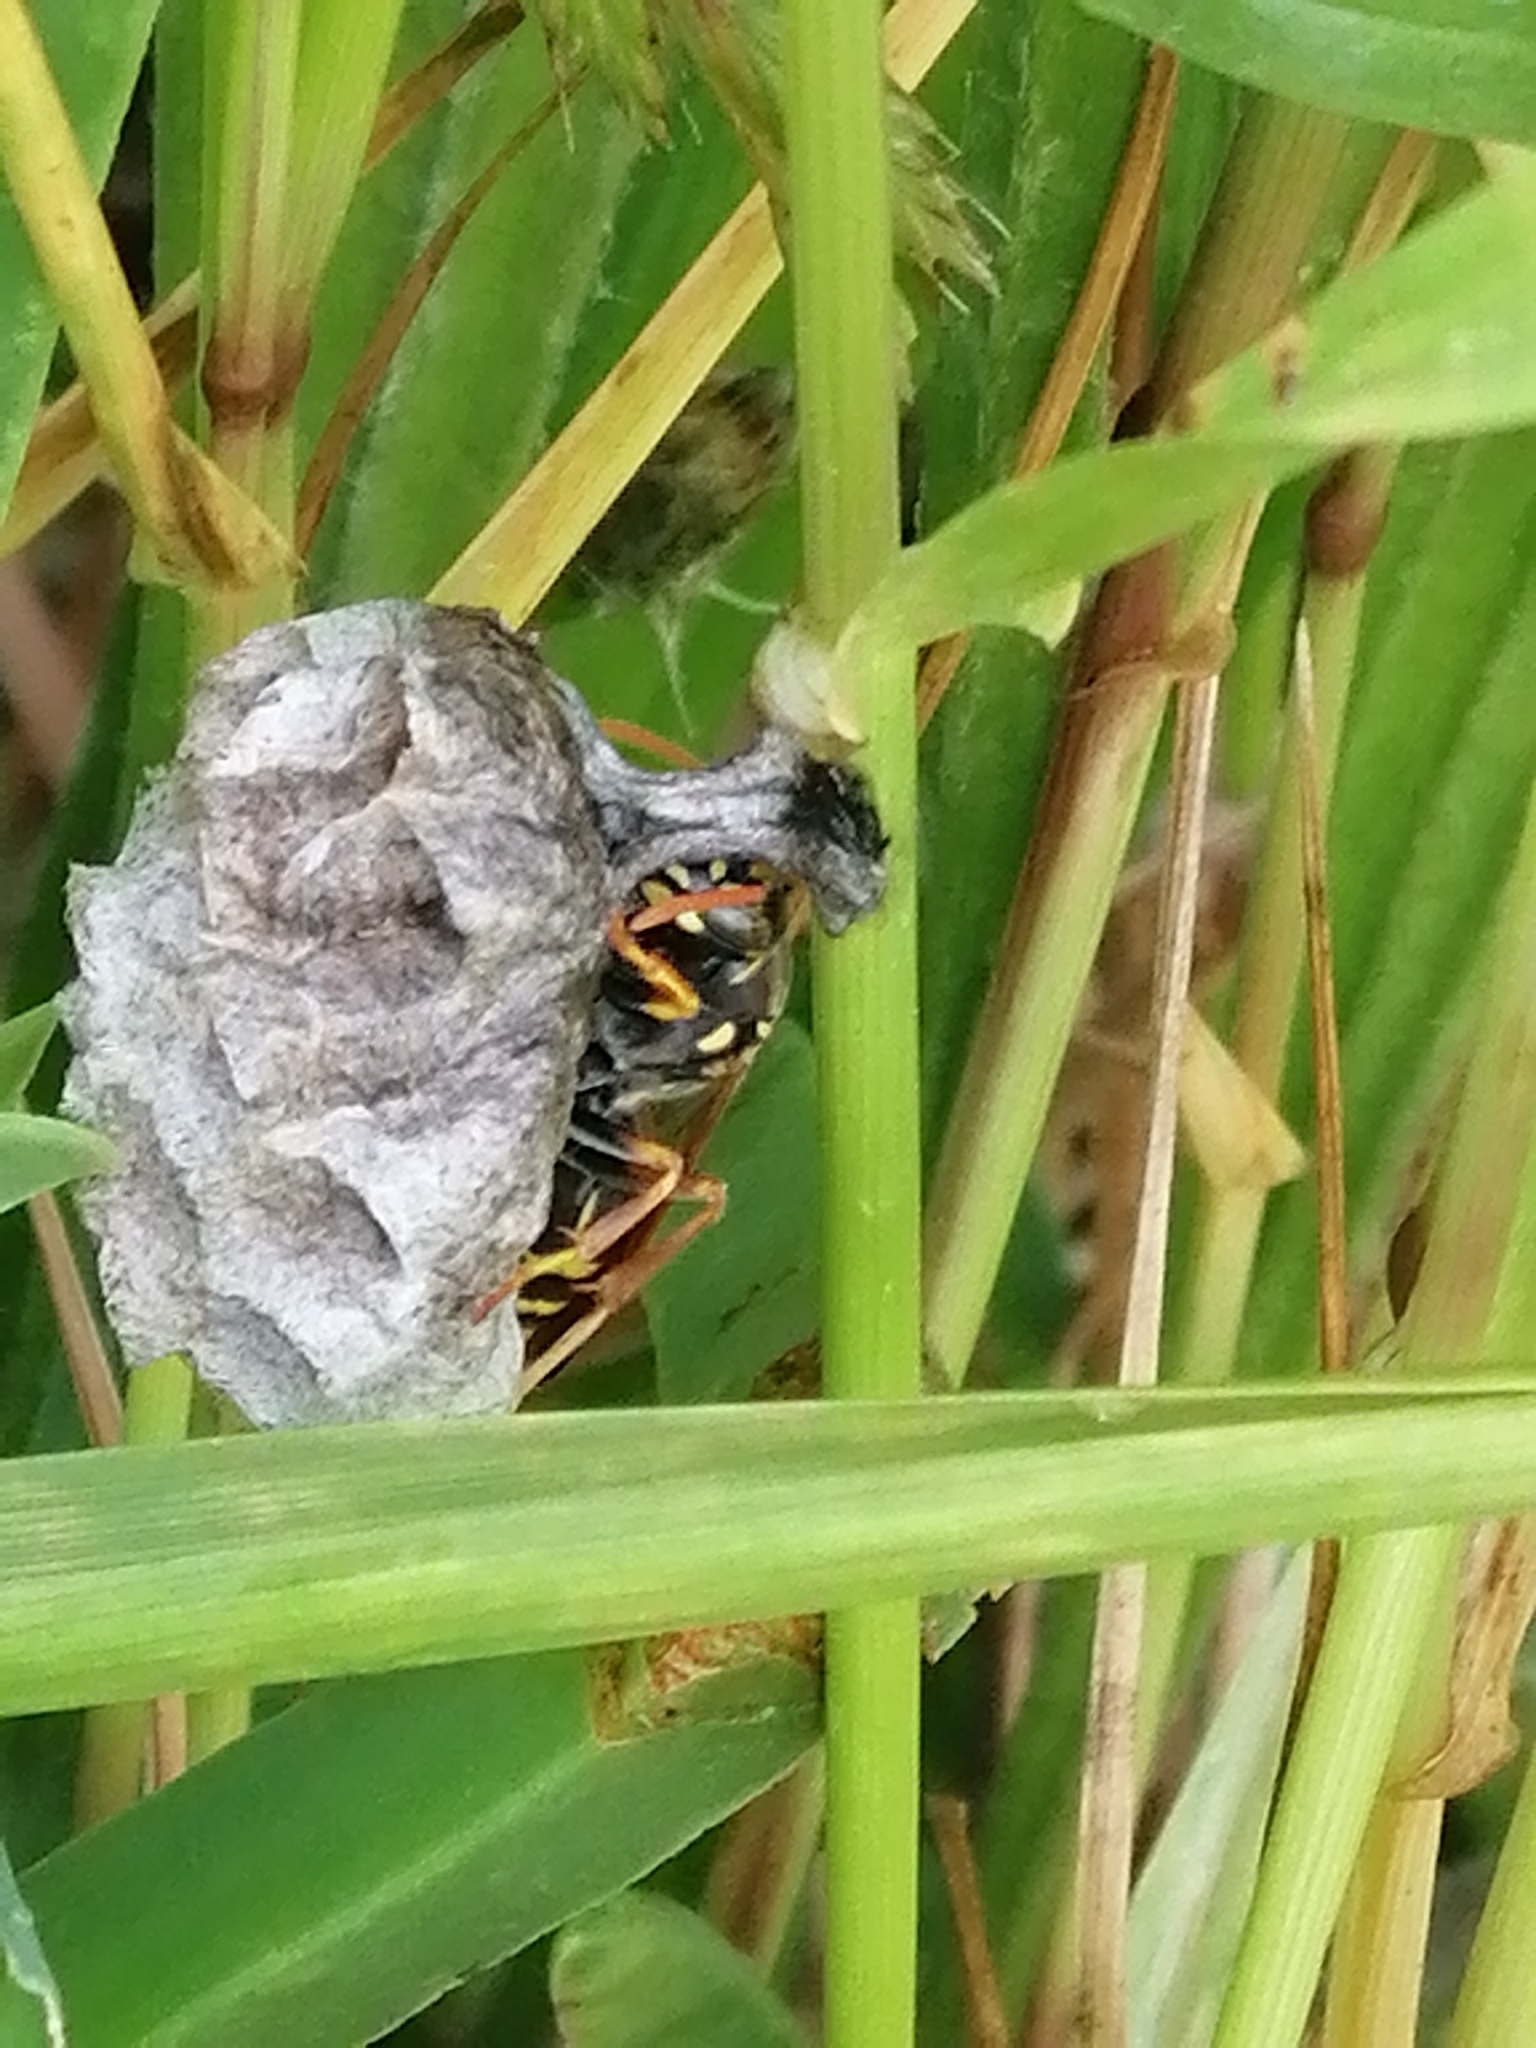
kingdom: Animalia
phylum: Arthropoda
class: Insecta
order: Hymenoptera
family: Eumenidae
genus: Polistes
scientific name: Polistes chinensis
